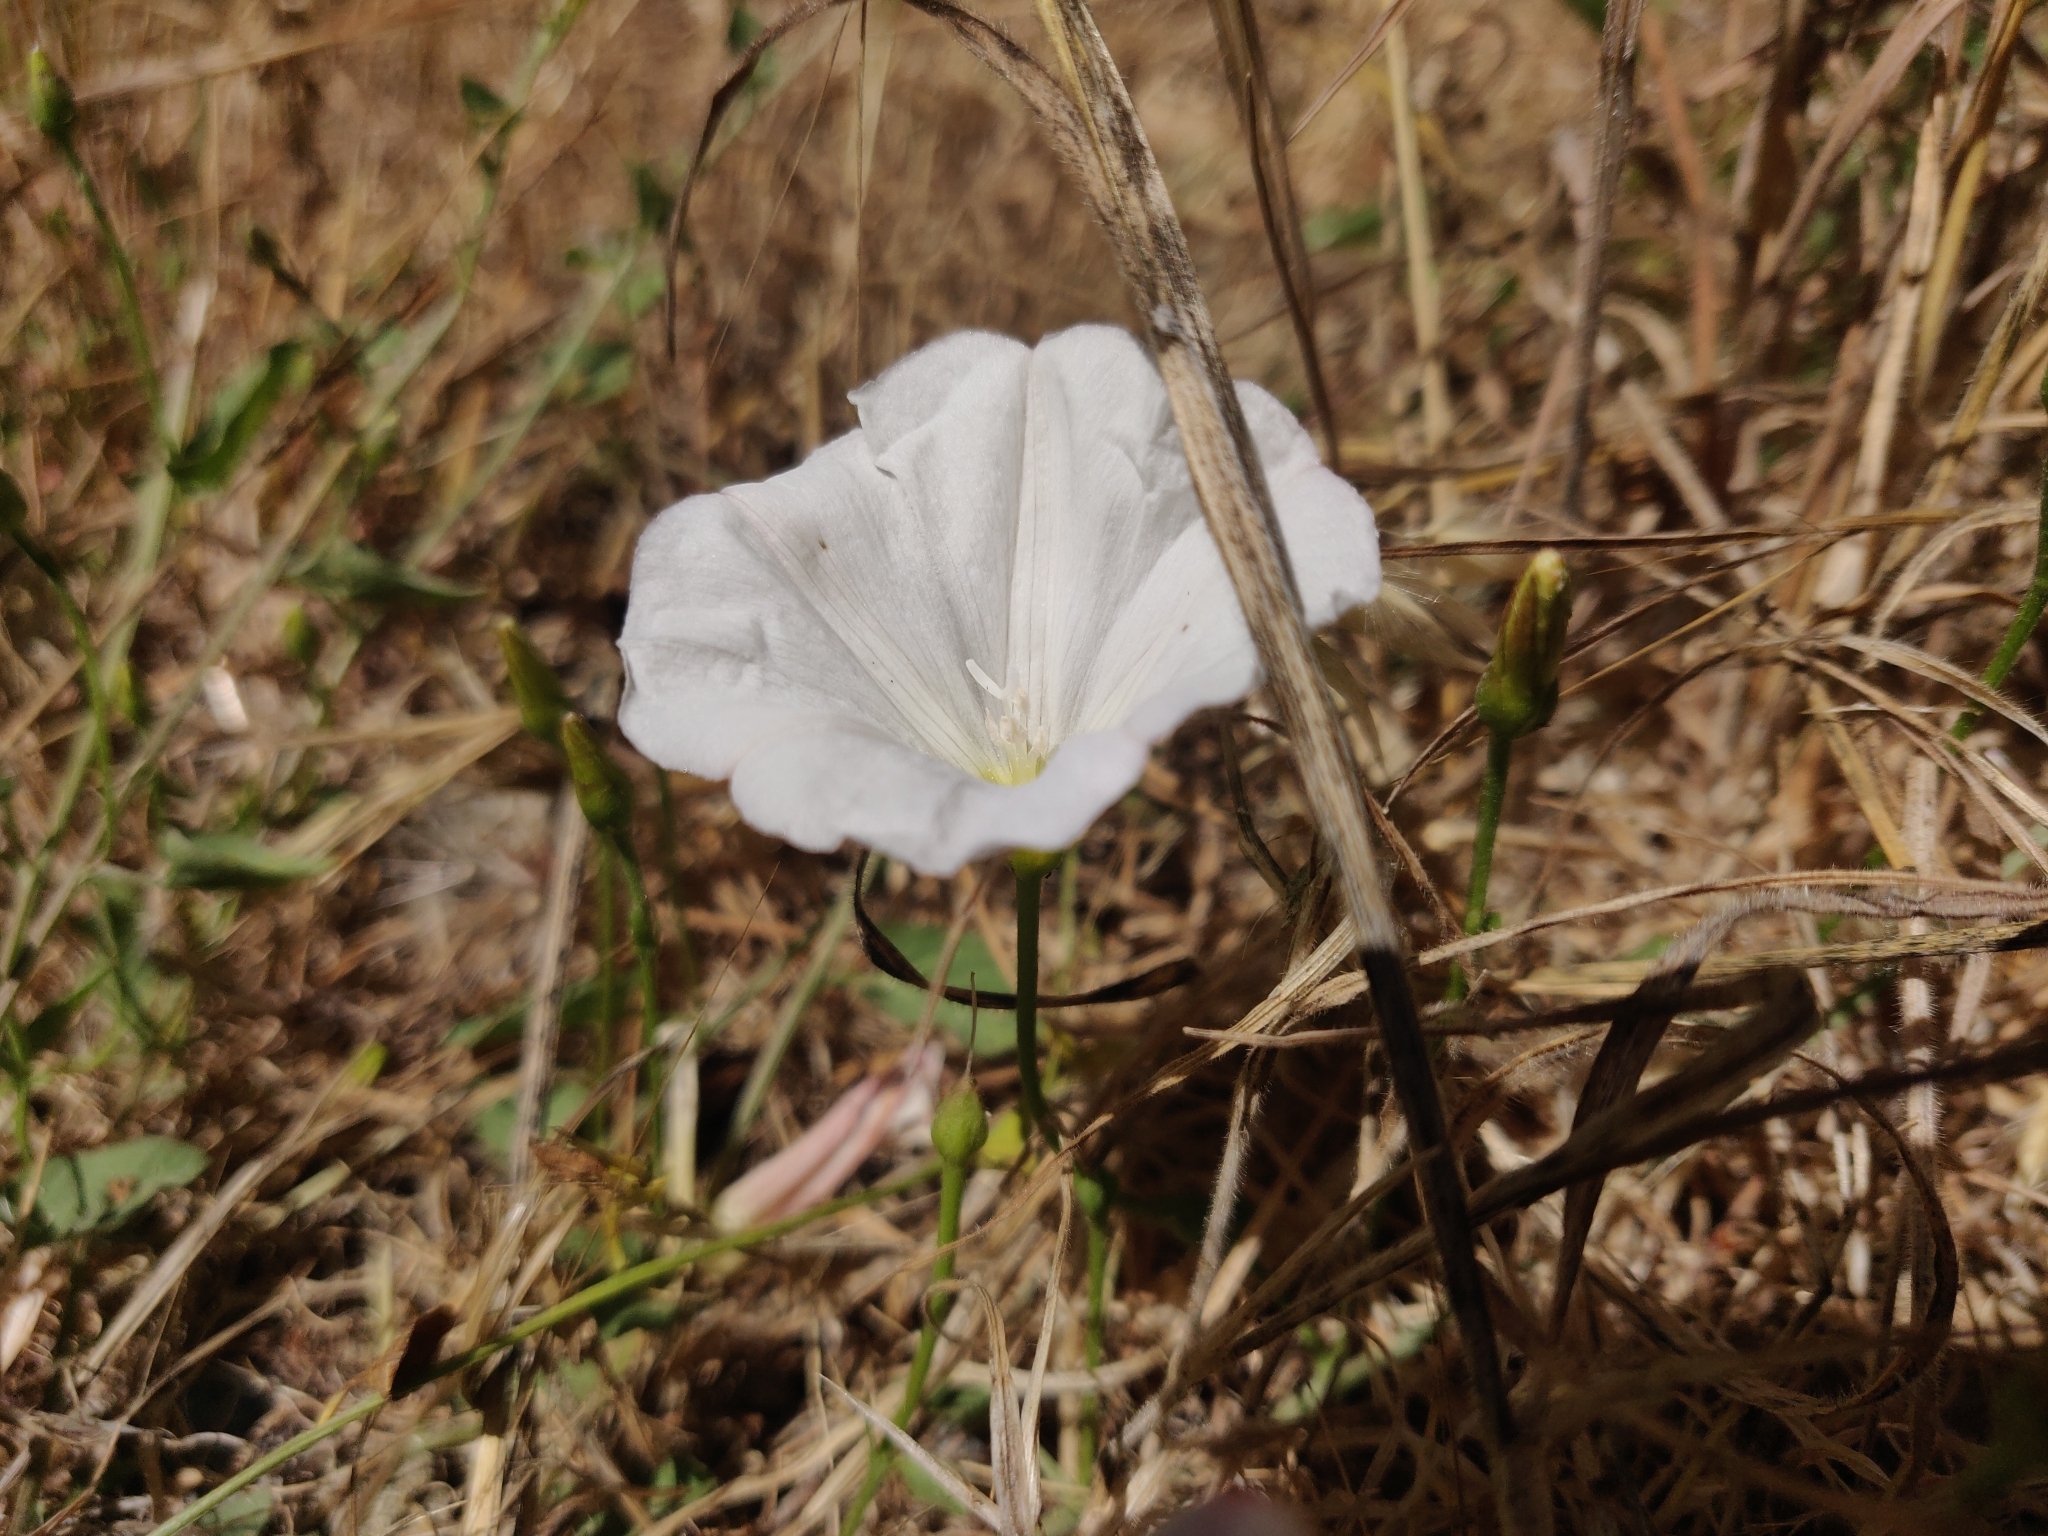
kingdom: Plantae
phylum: Tracheophyta
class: Magnoliopsida
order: Solanales
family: Convolvulaceae
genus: Convolvulus
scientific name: Convolvulus arvensis
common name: Field bindweed
